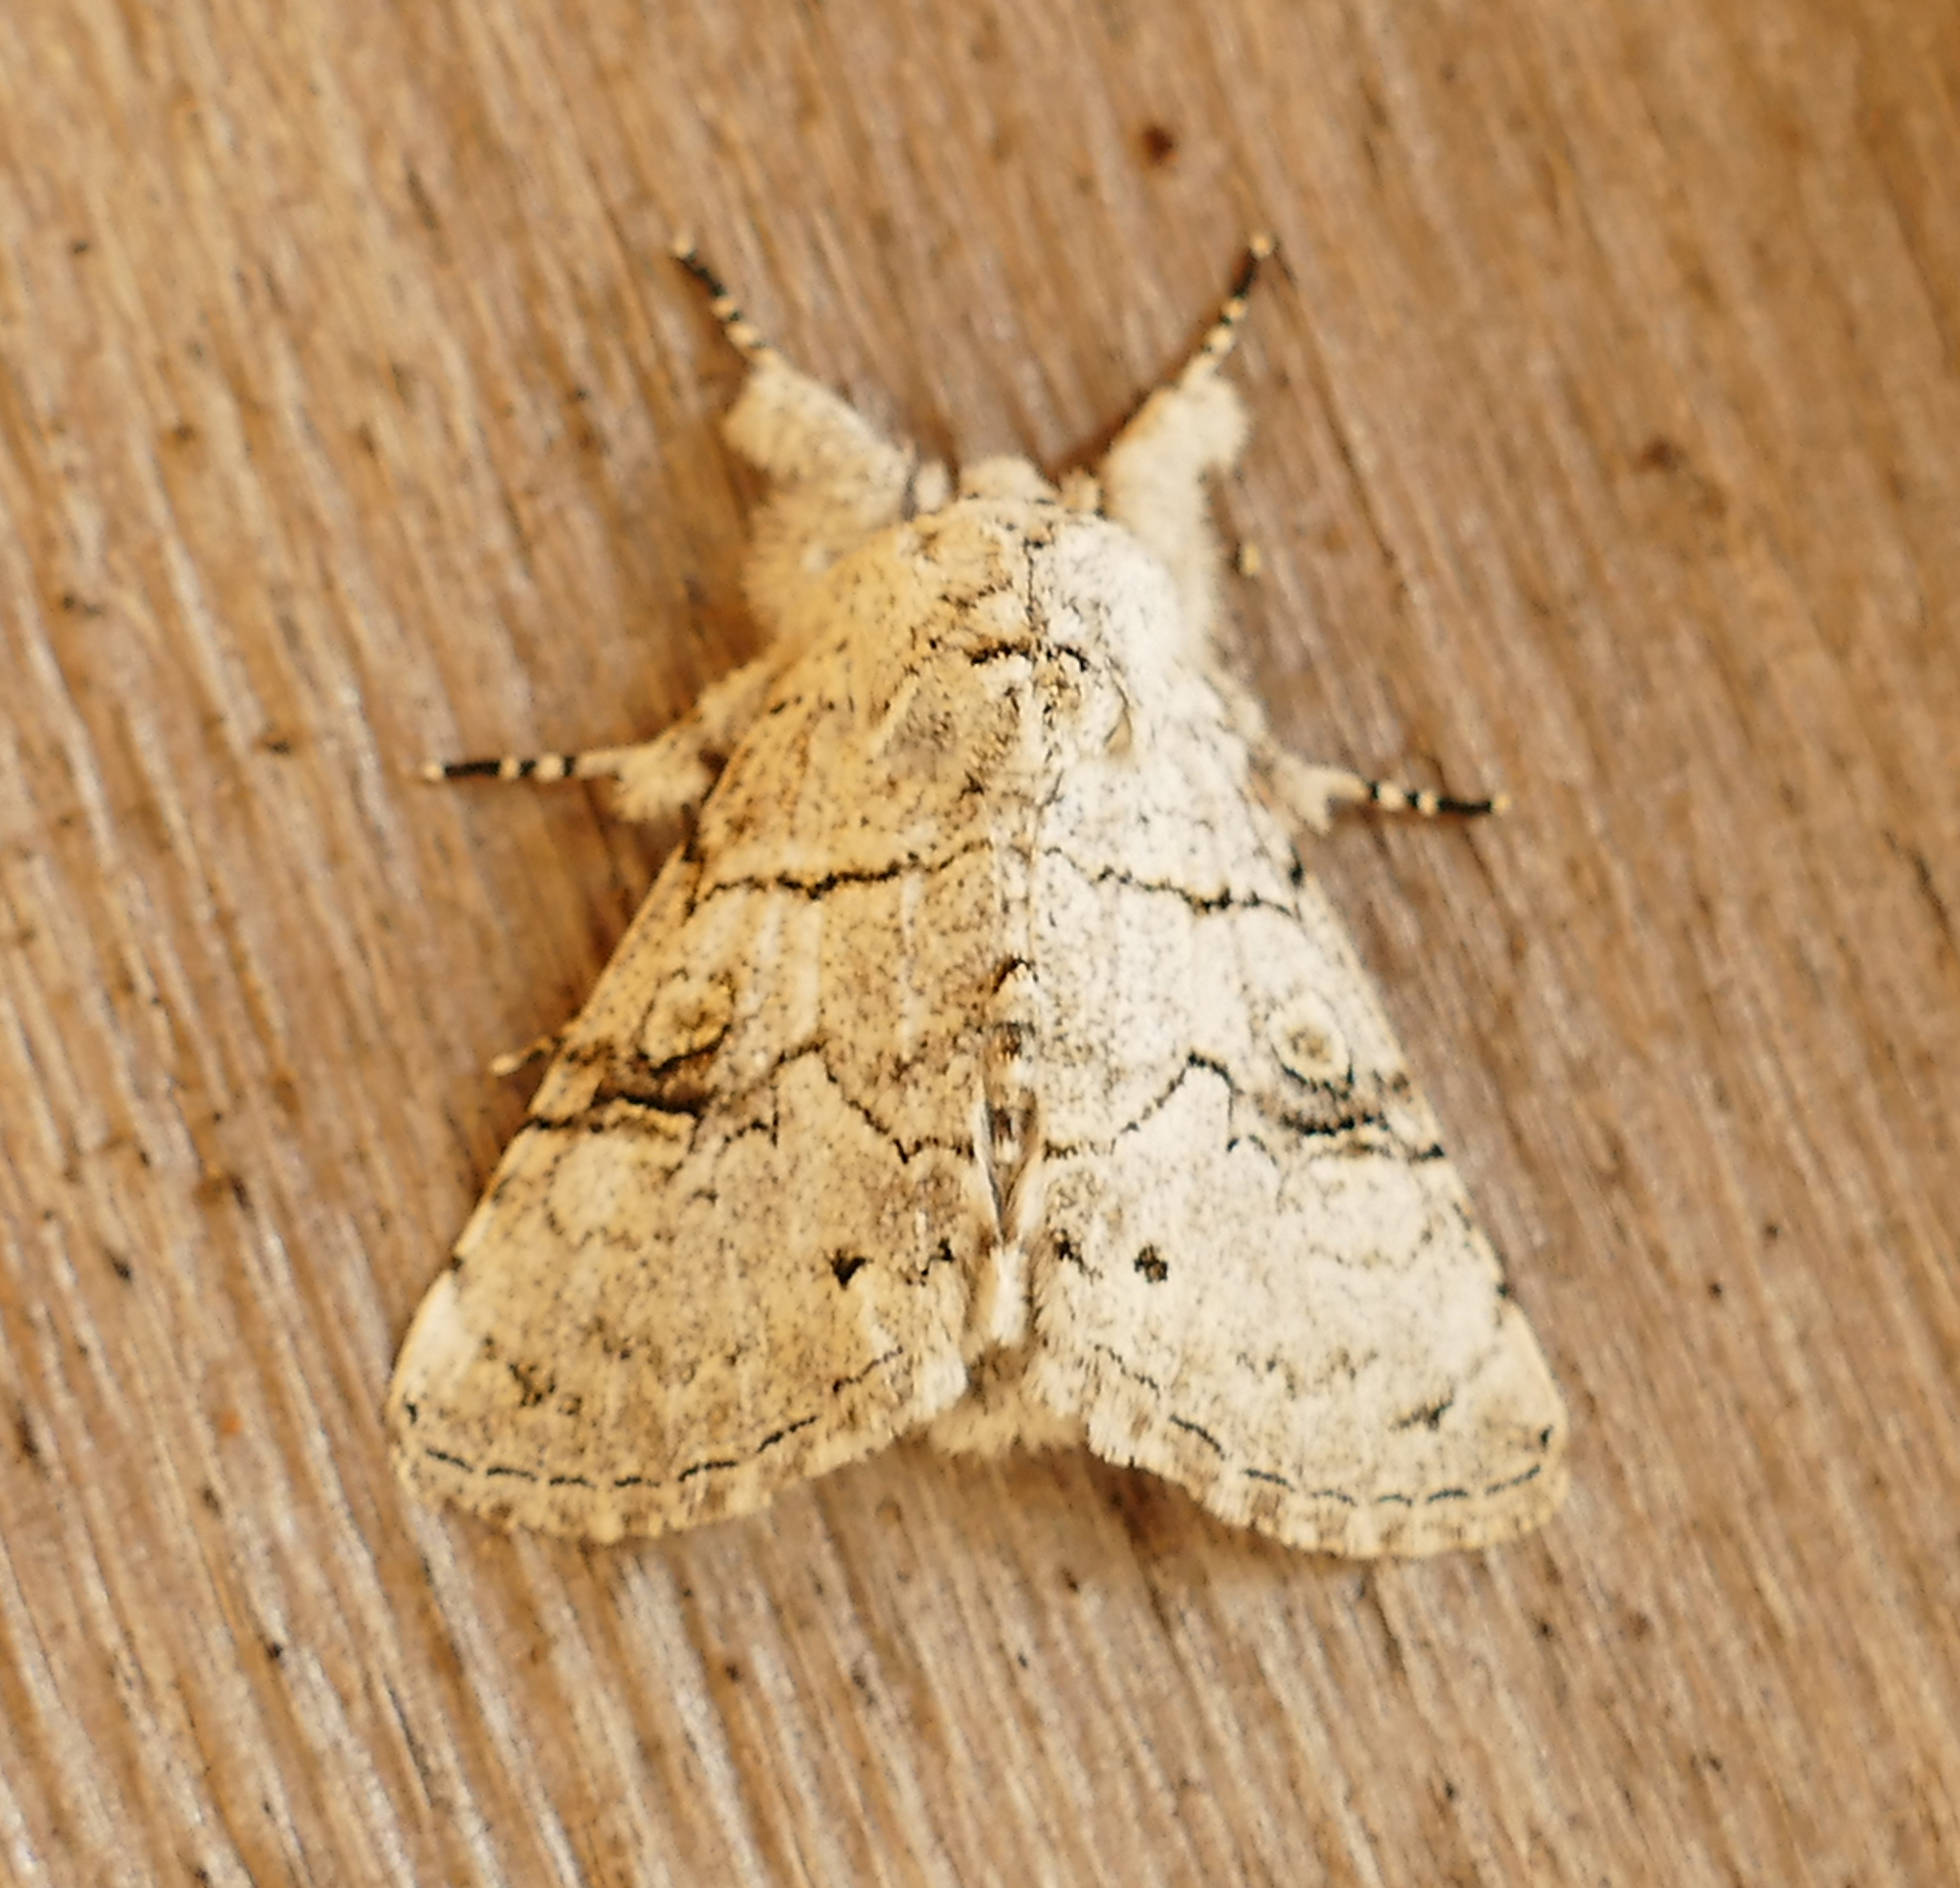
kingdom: Animalia
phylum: Arthropoda
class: Insecta
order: Lepidoptera
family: Noctuidae
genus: Charadra
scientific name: Charadra dispulsa
